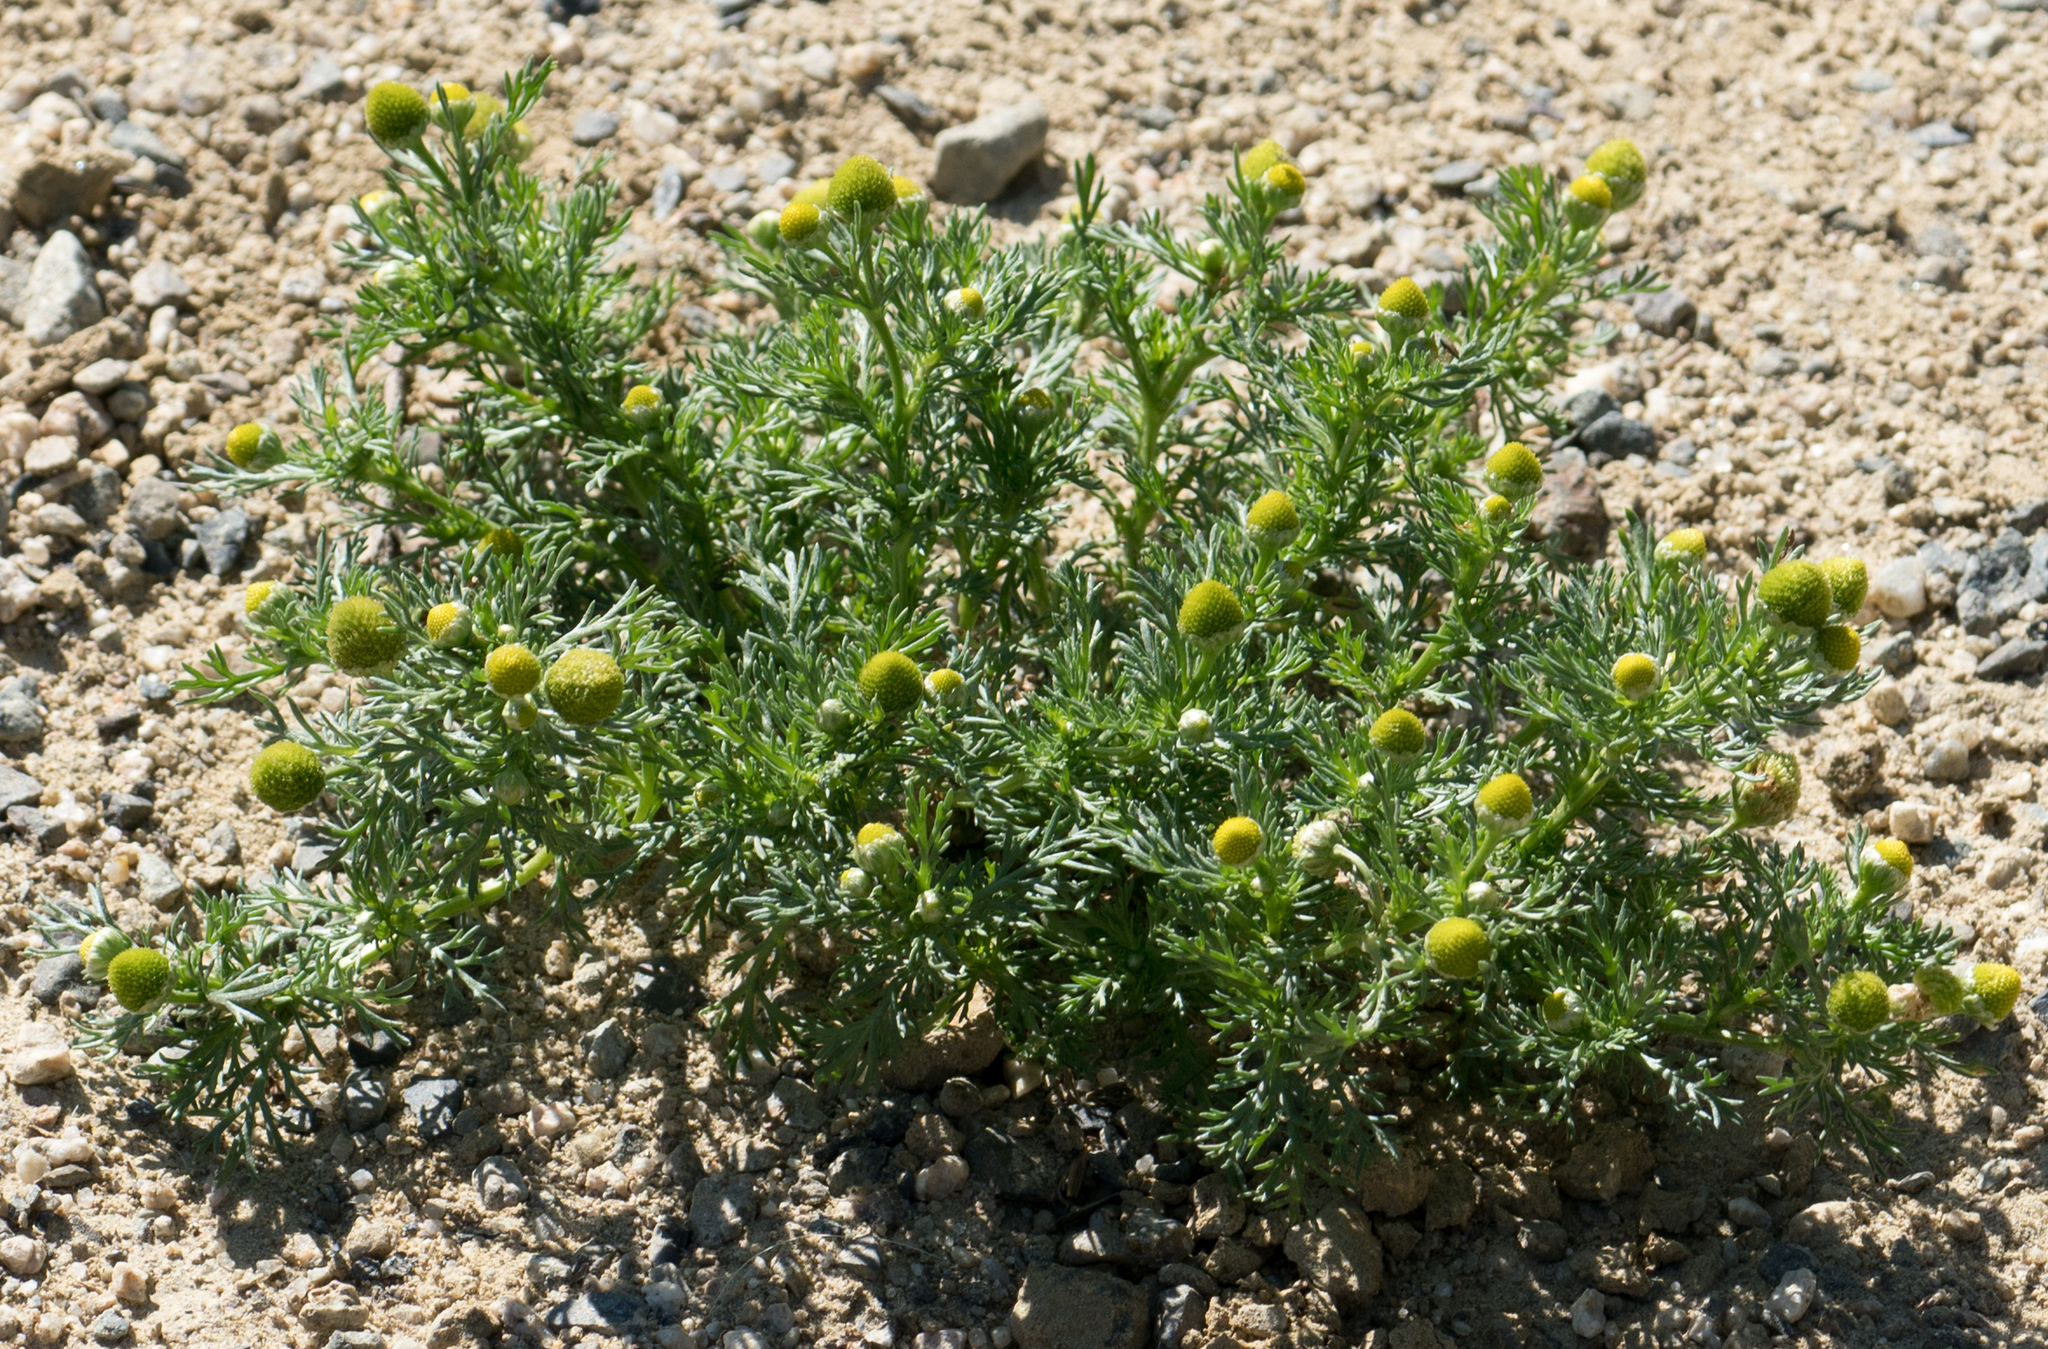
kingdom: Plantae
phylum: Tracheophyta
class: Magnoliopsida
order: Asterales
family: Asteraceae
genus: Matricaria
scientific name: Matricaria discoidea
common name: Disc mayweed
